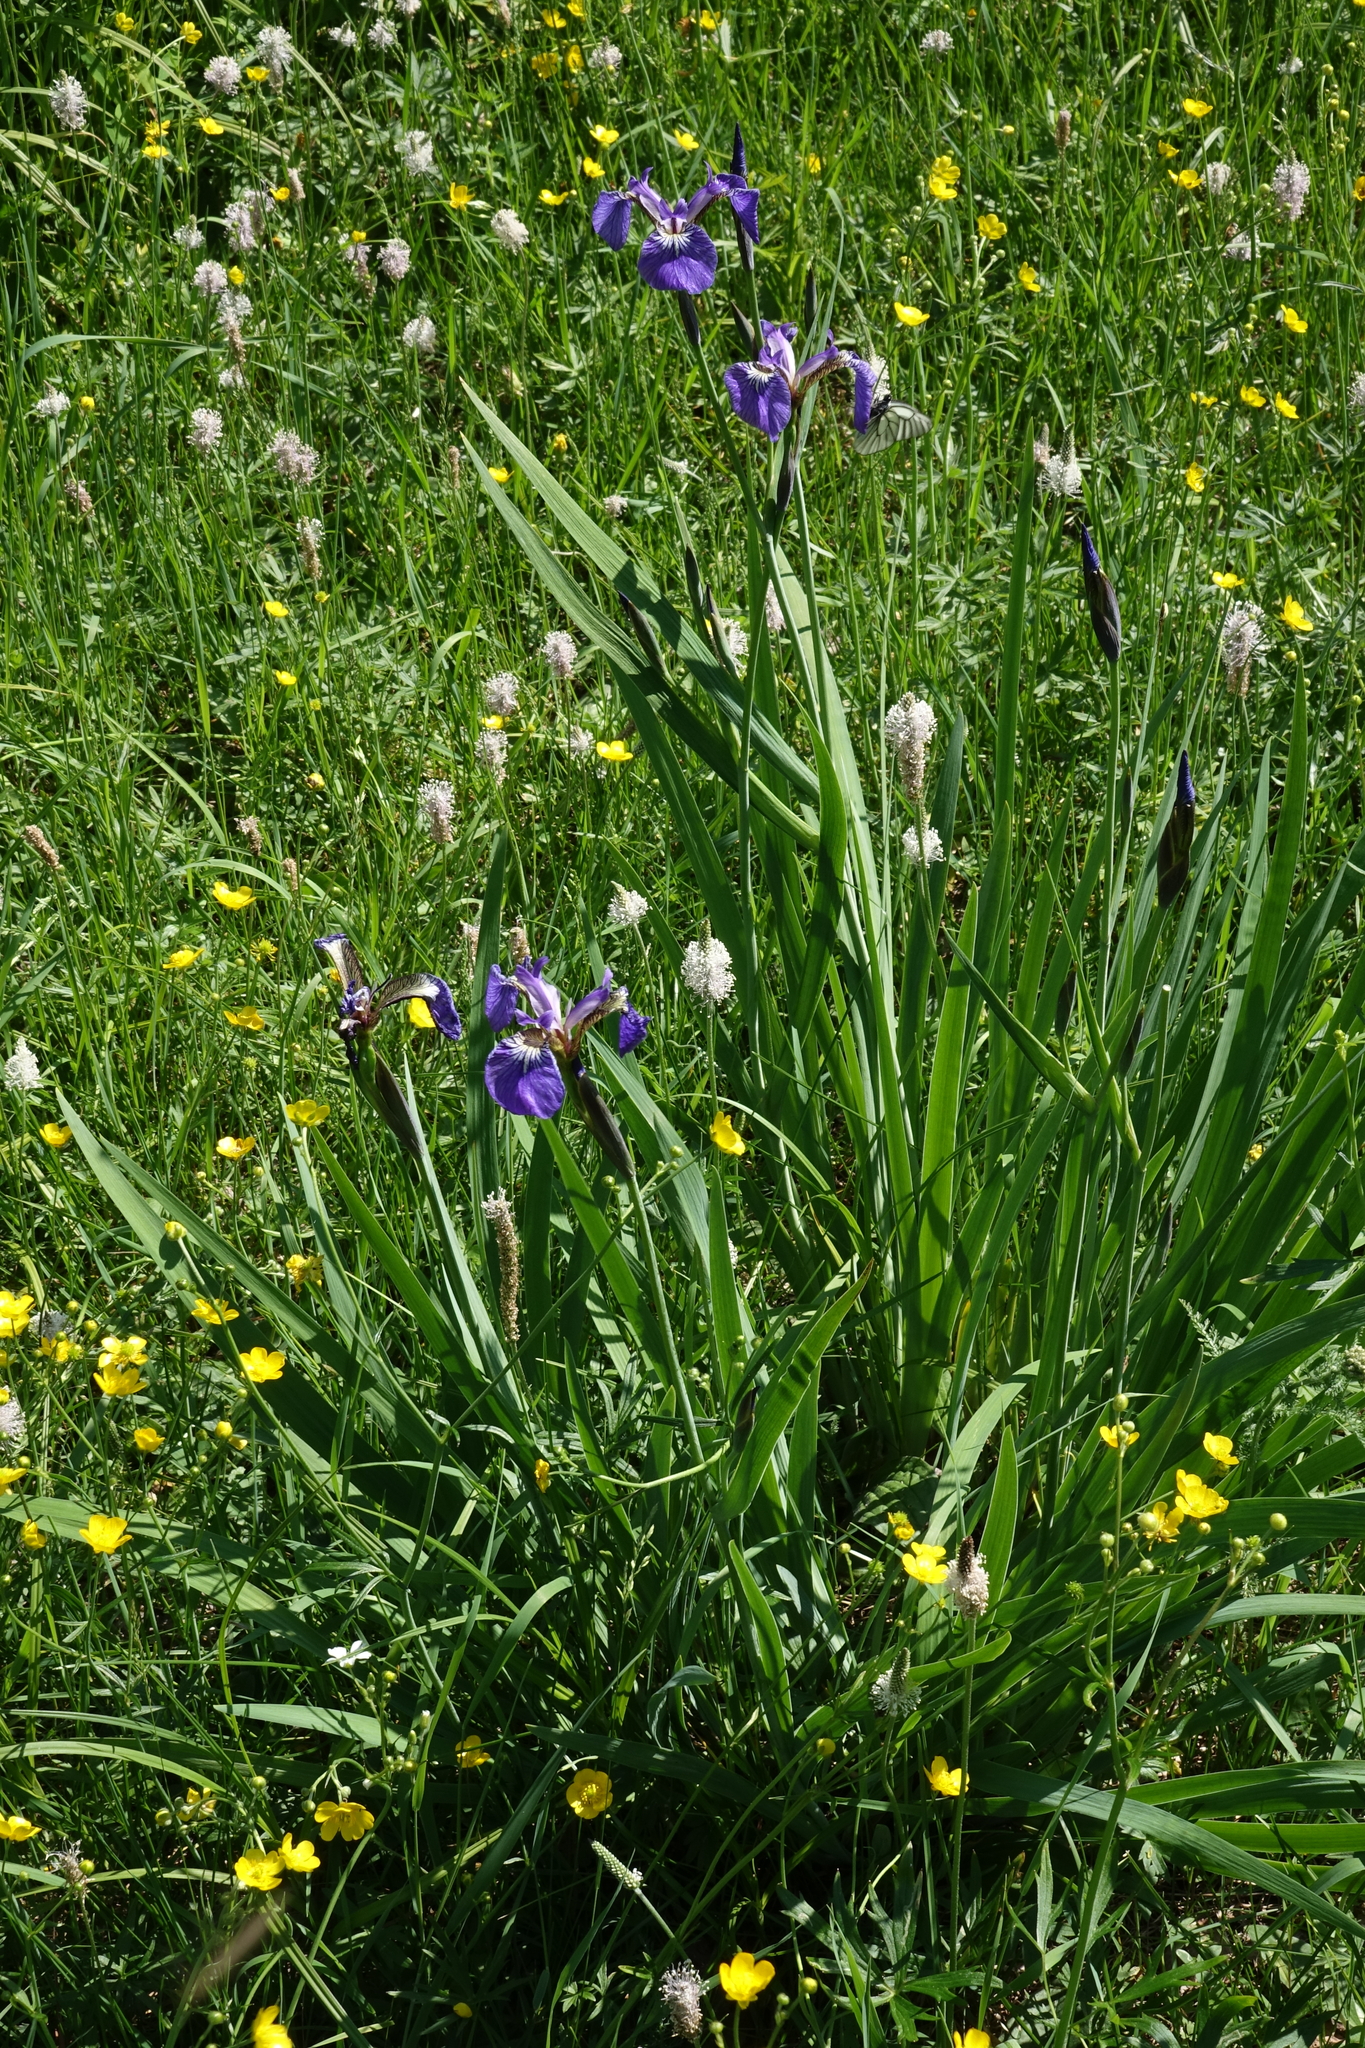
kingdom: Plantae
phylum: Tracheophyta
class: Liliopsida
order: Asparagales
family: Iridaceae
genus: Iris
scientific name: Iris setosa
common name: Arctic blue flag
